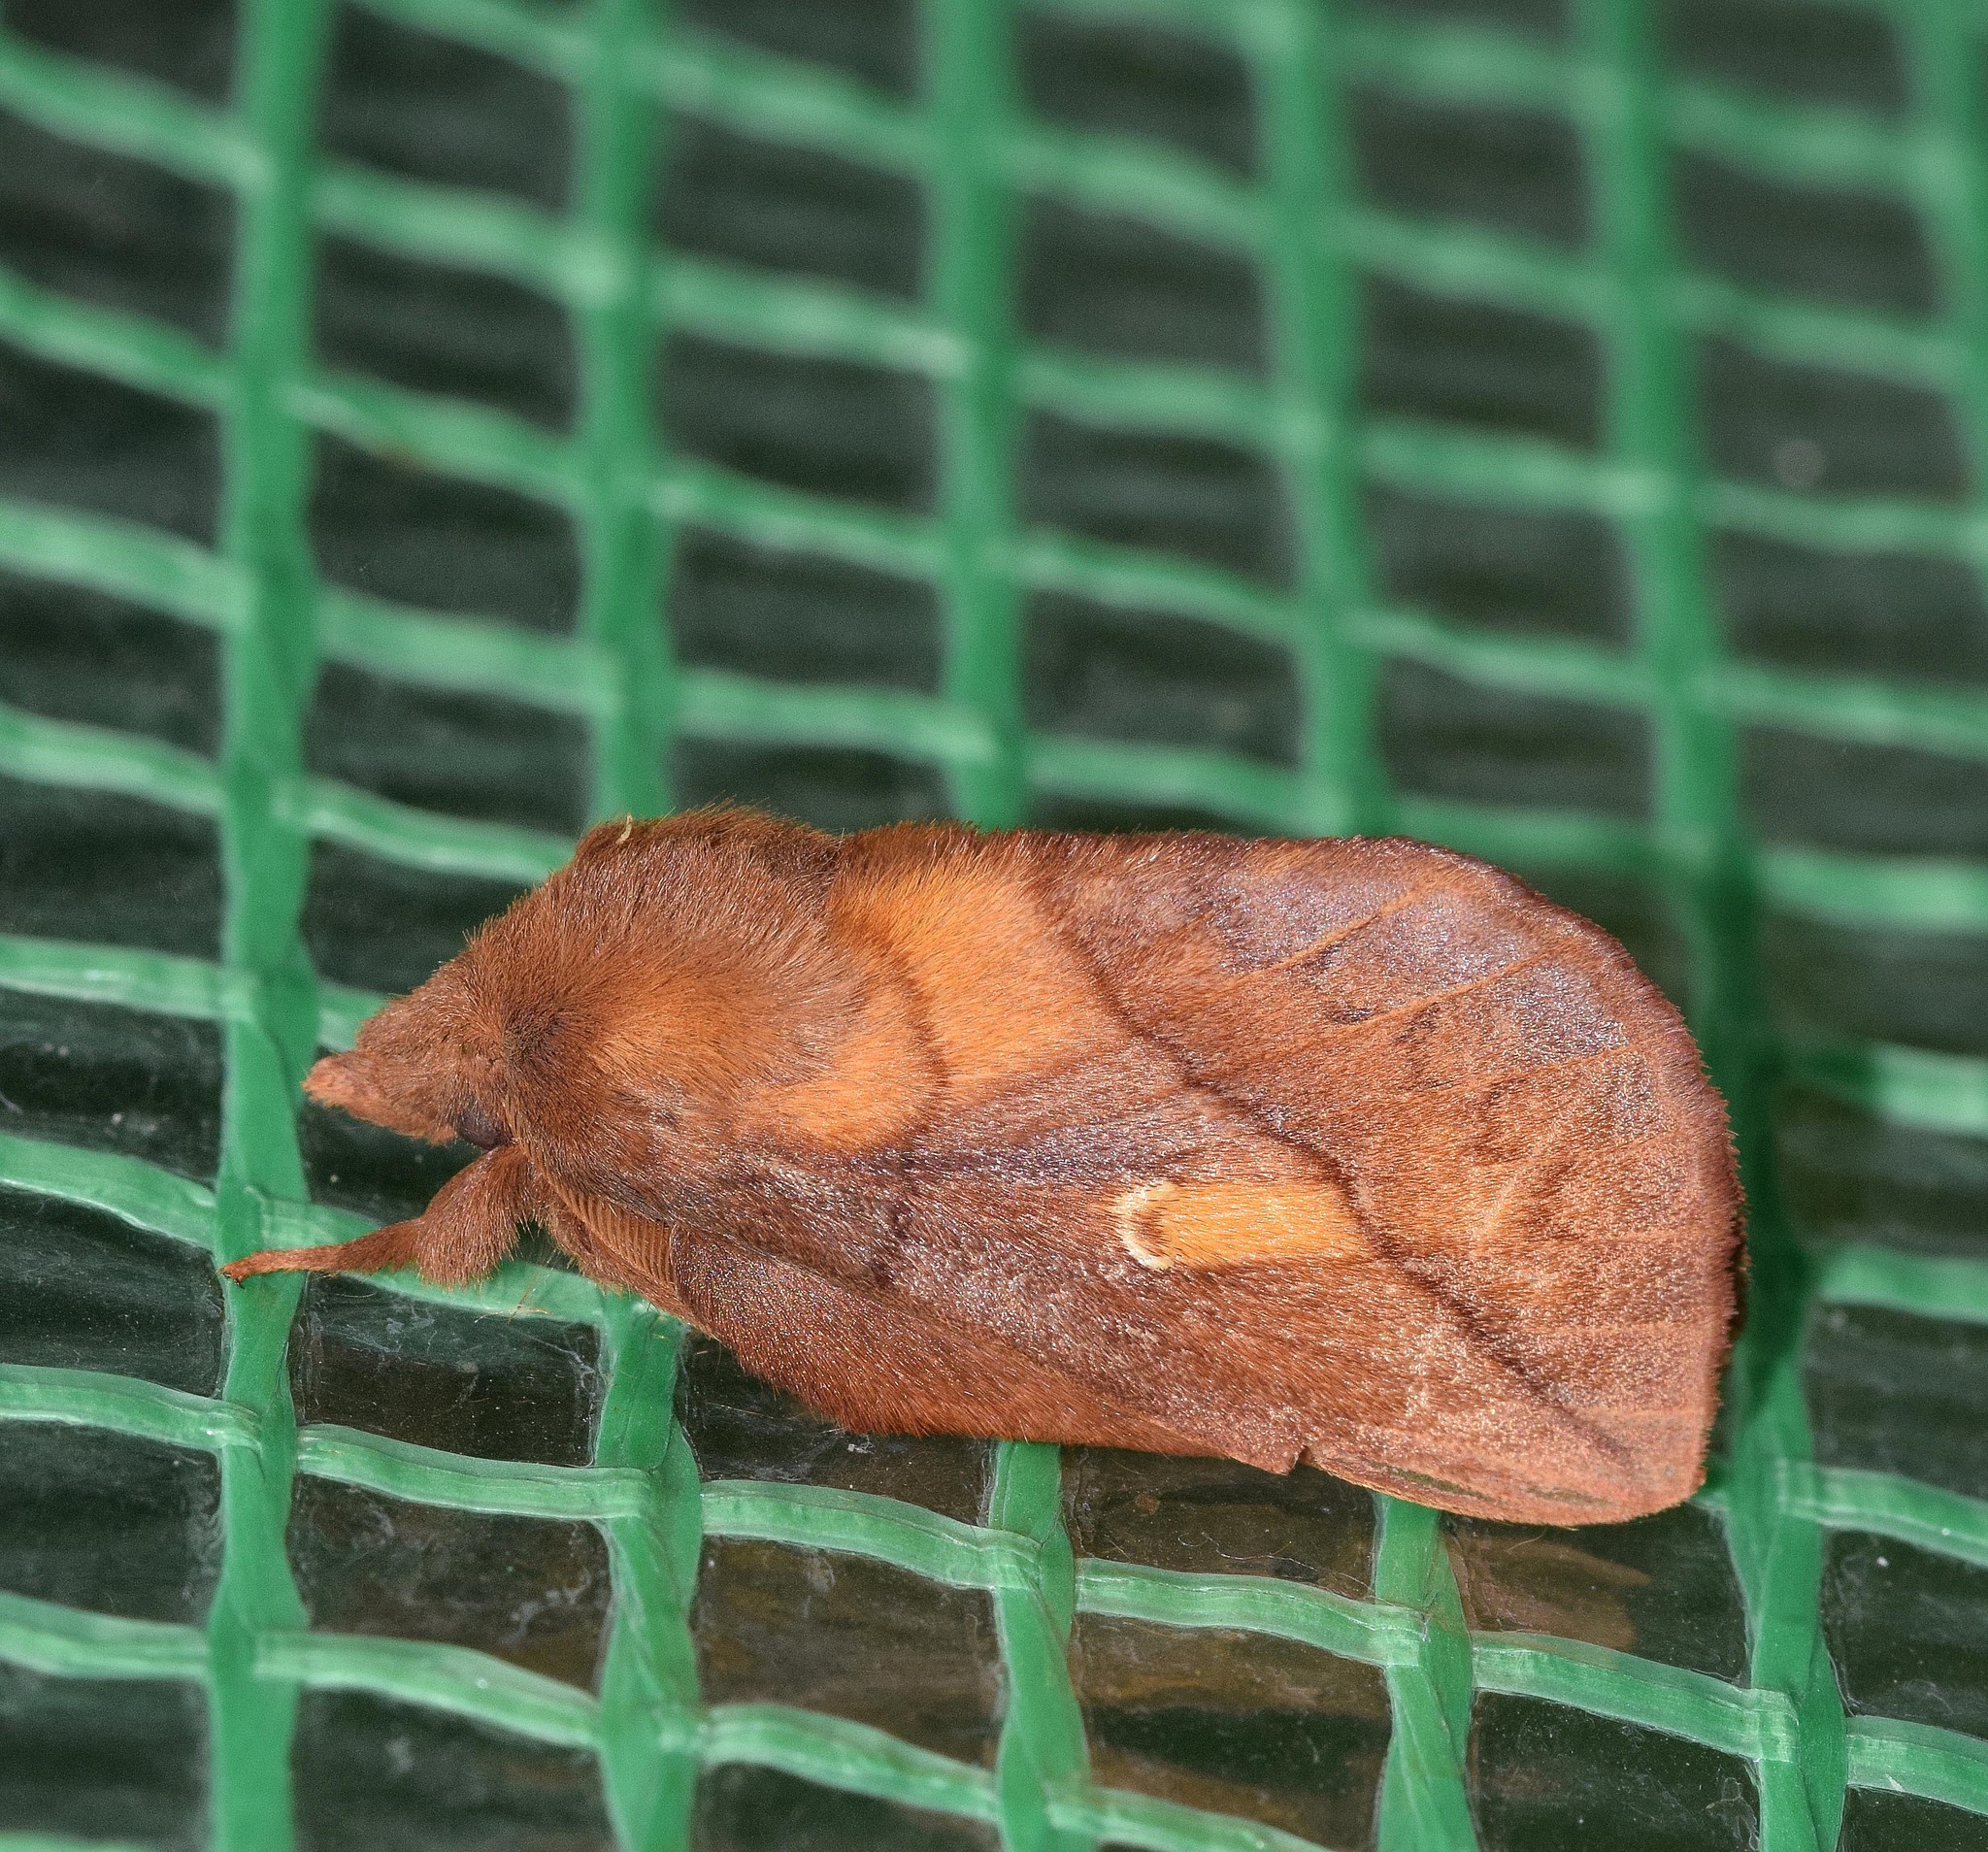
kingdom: Animalia
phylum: Arthropoda
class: Insecta
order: Lepidoptera
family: Lasiocampidae
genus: Euthrix
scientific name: Euthrix potatoria
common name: Drinker
